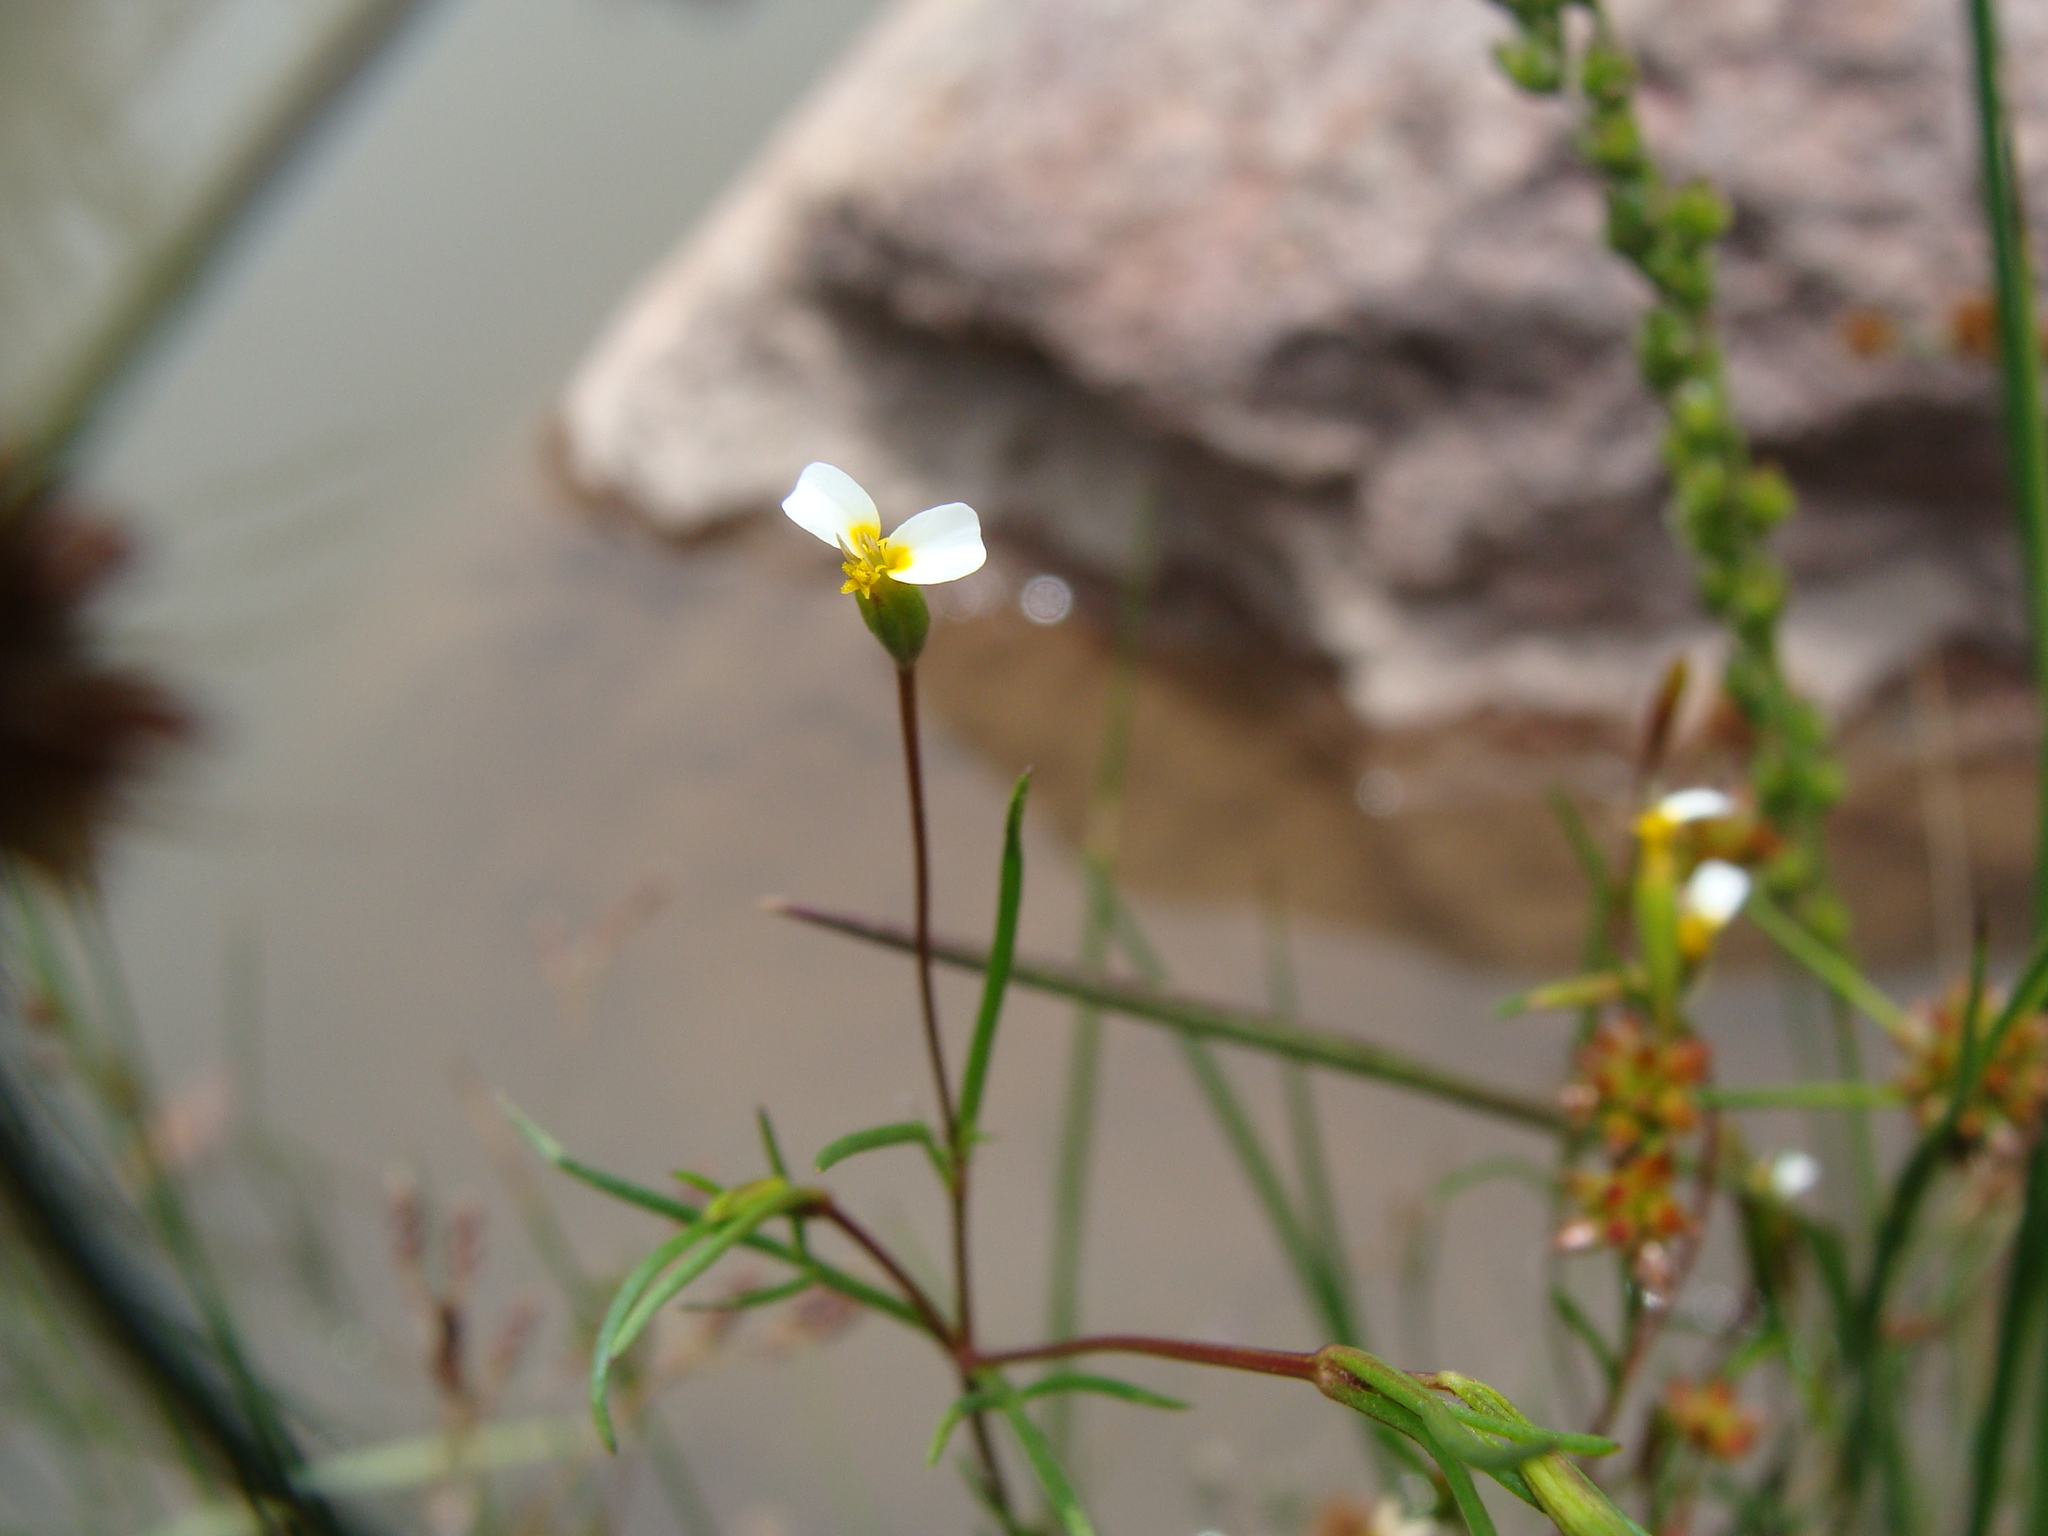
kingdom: Plantae
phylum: Tracheophyta
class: Magnoliopsida
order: Asterales
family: Asteraceae
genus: Tagetes
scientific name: Tagetes micrantha
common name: Licorice marigold
